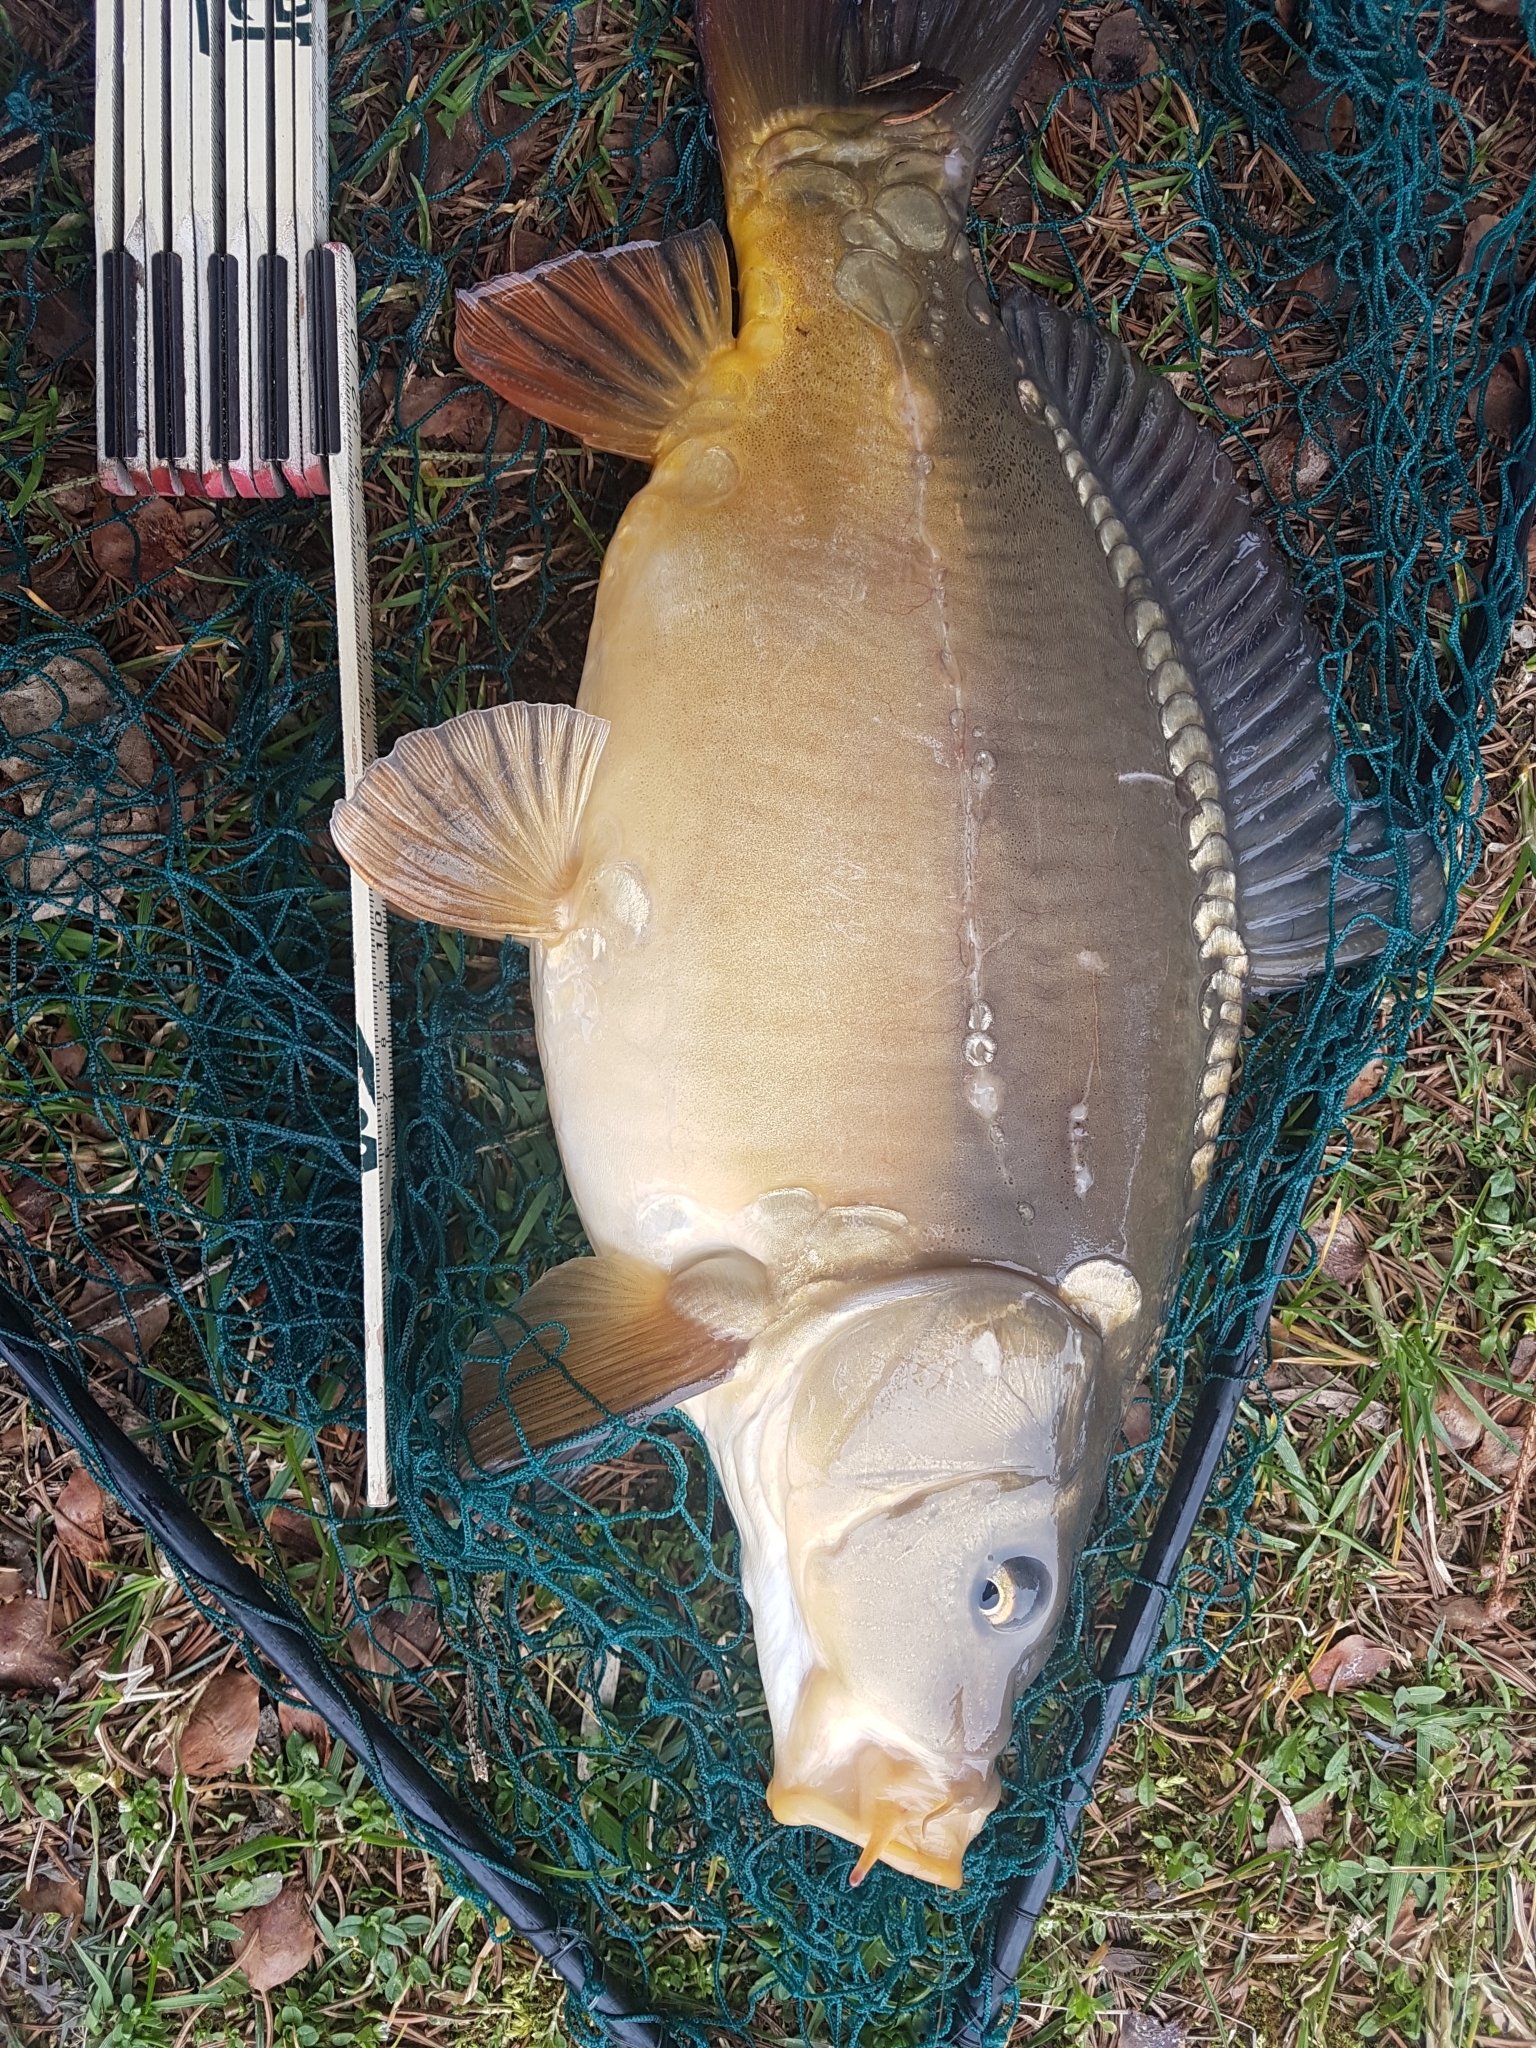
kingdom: Animalia
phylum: Chordata
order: Cypriniformes
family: Cyprinidae
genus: Cyprinus
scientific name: Cyprinus carpio
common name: Common carp
